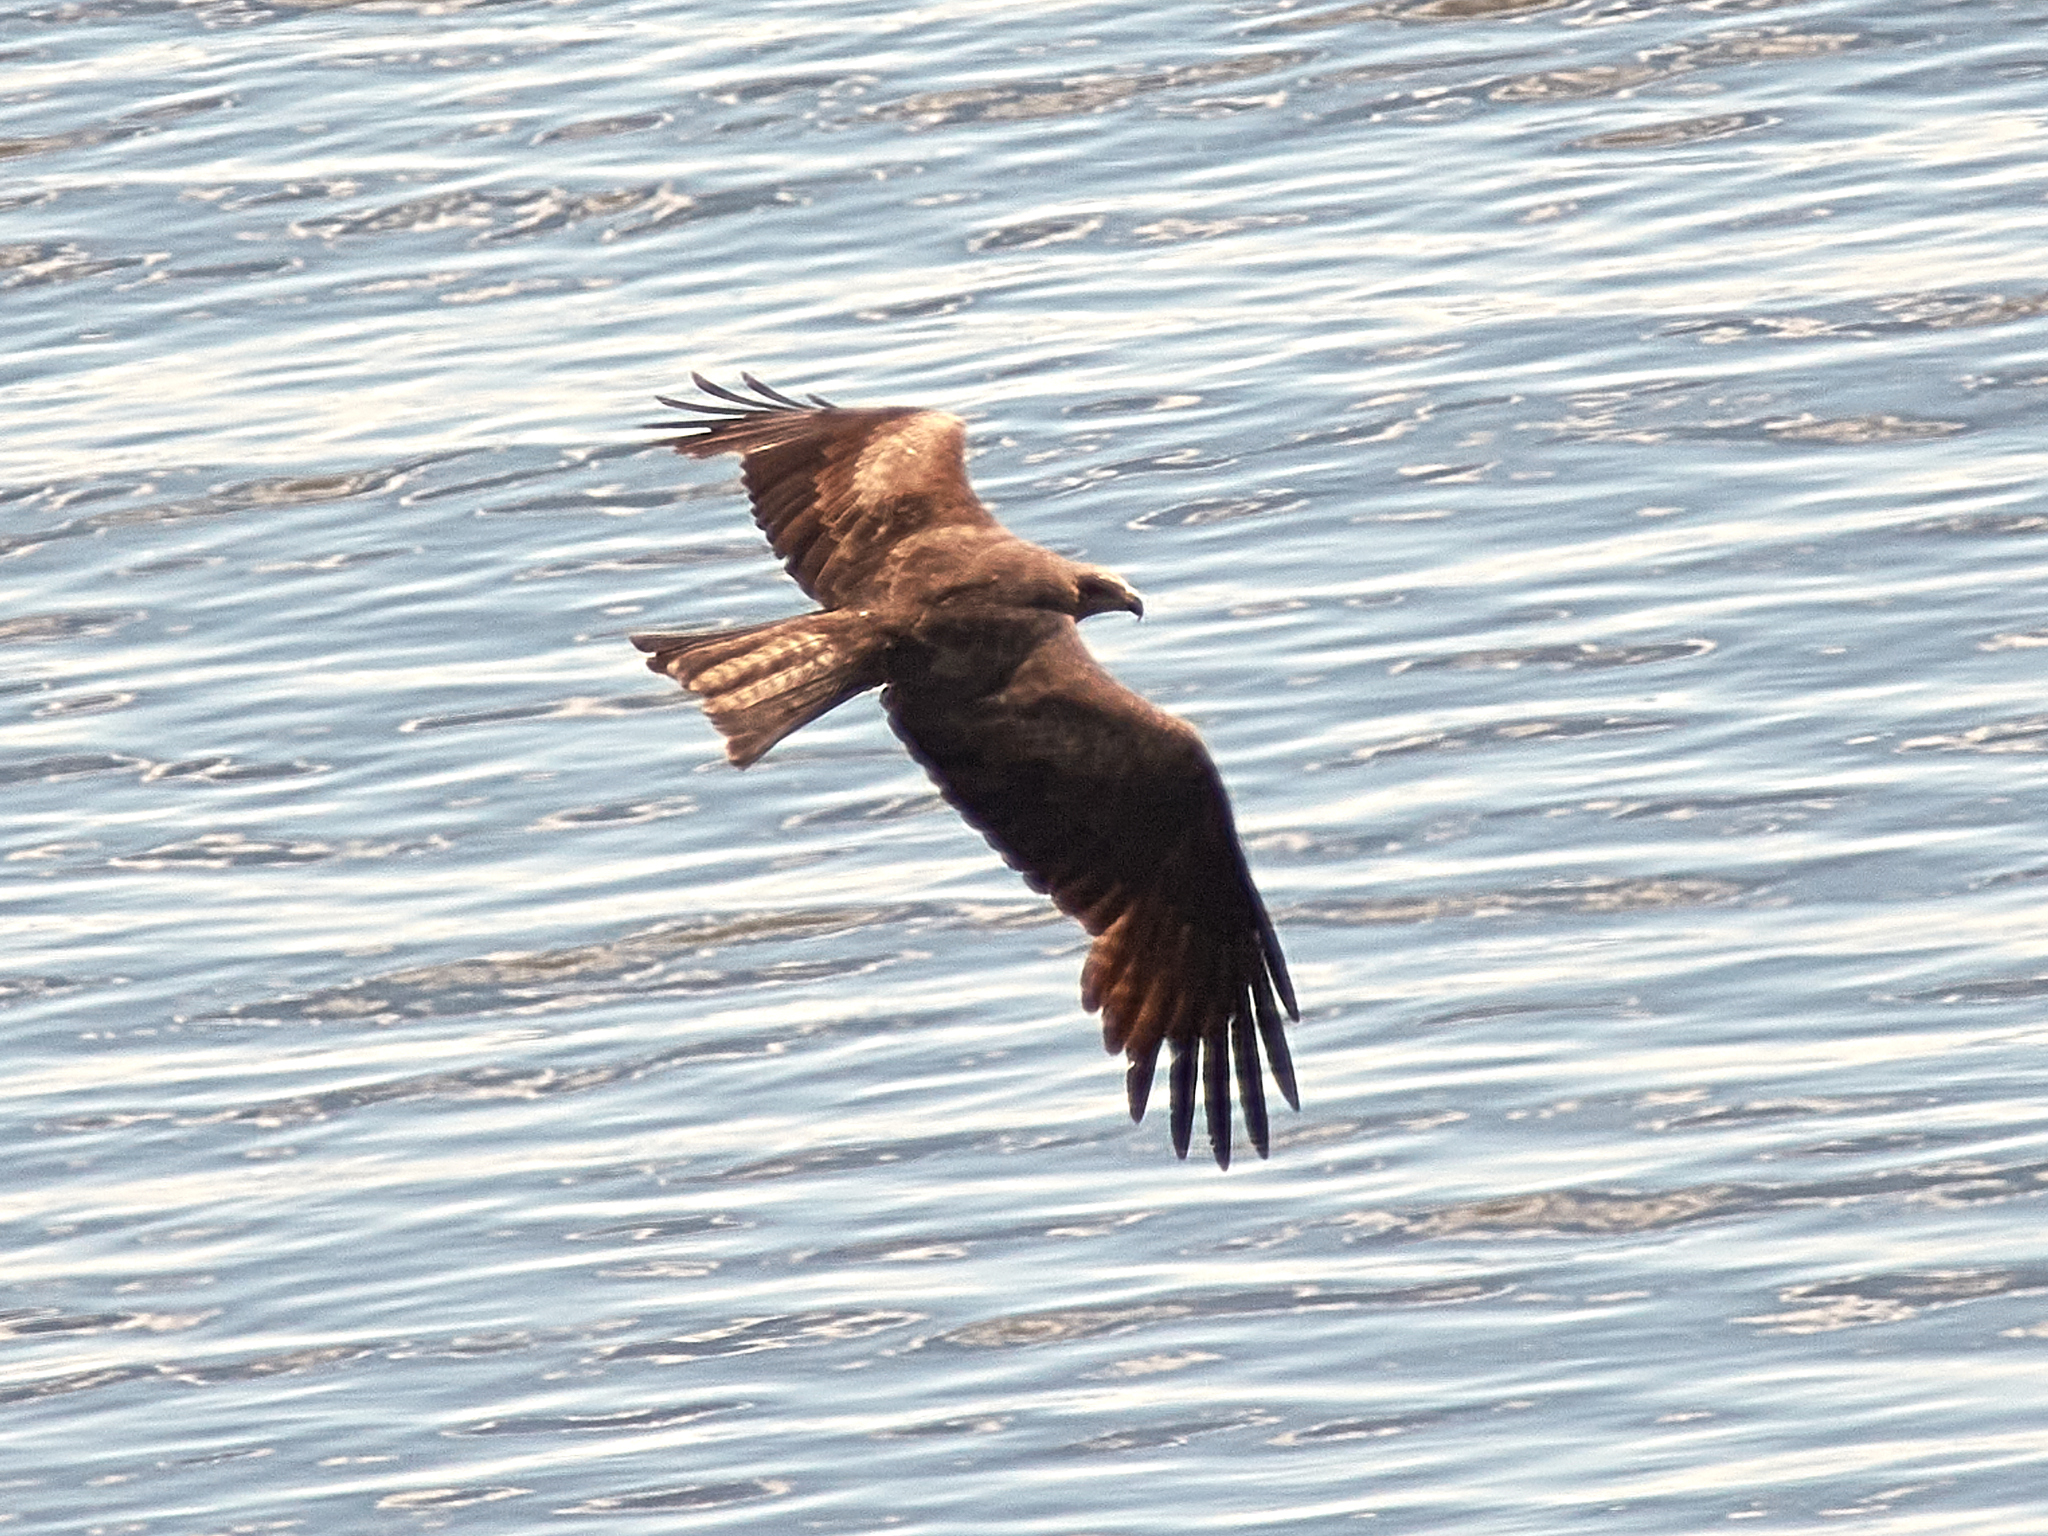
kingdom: Animalia
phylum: Chordata
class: Aves
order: Accipitriformes
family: Accipitridae
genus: Milvus
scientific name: Milvus migrans
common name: Black kite
